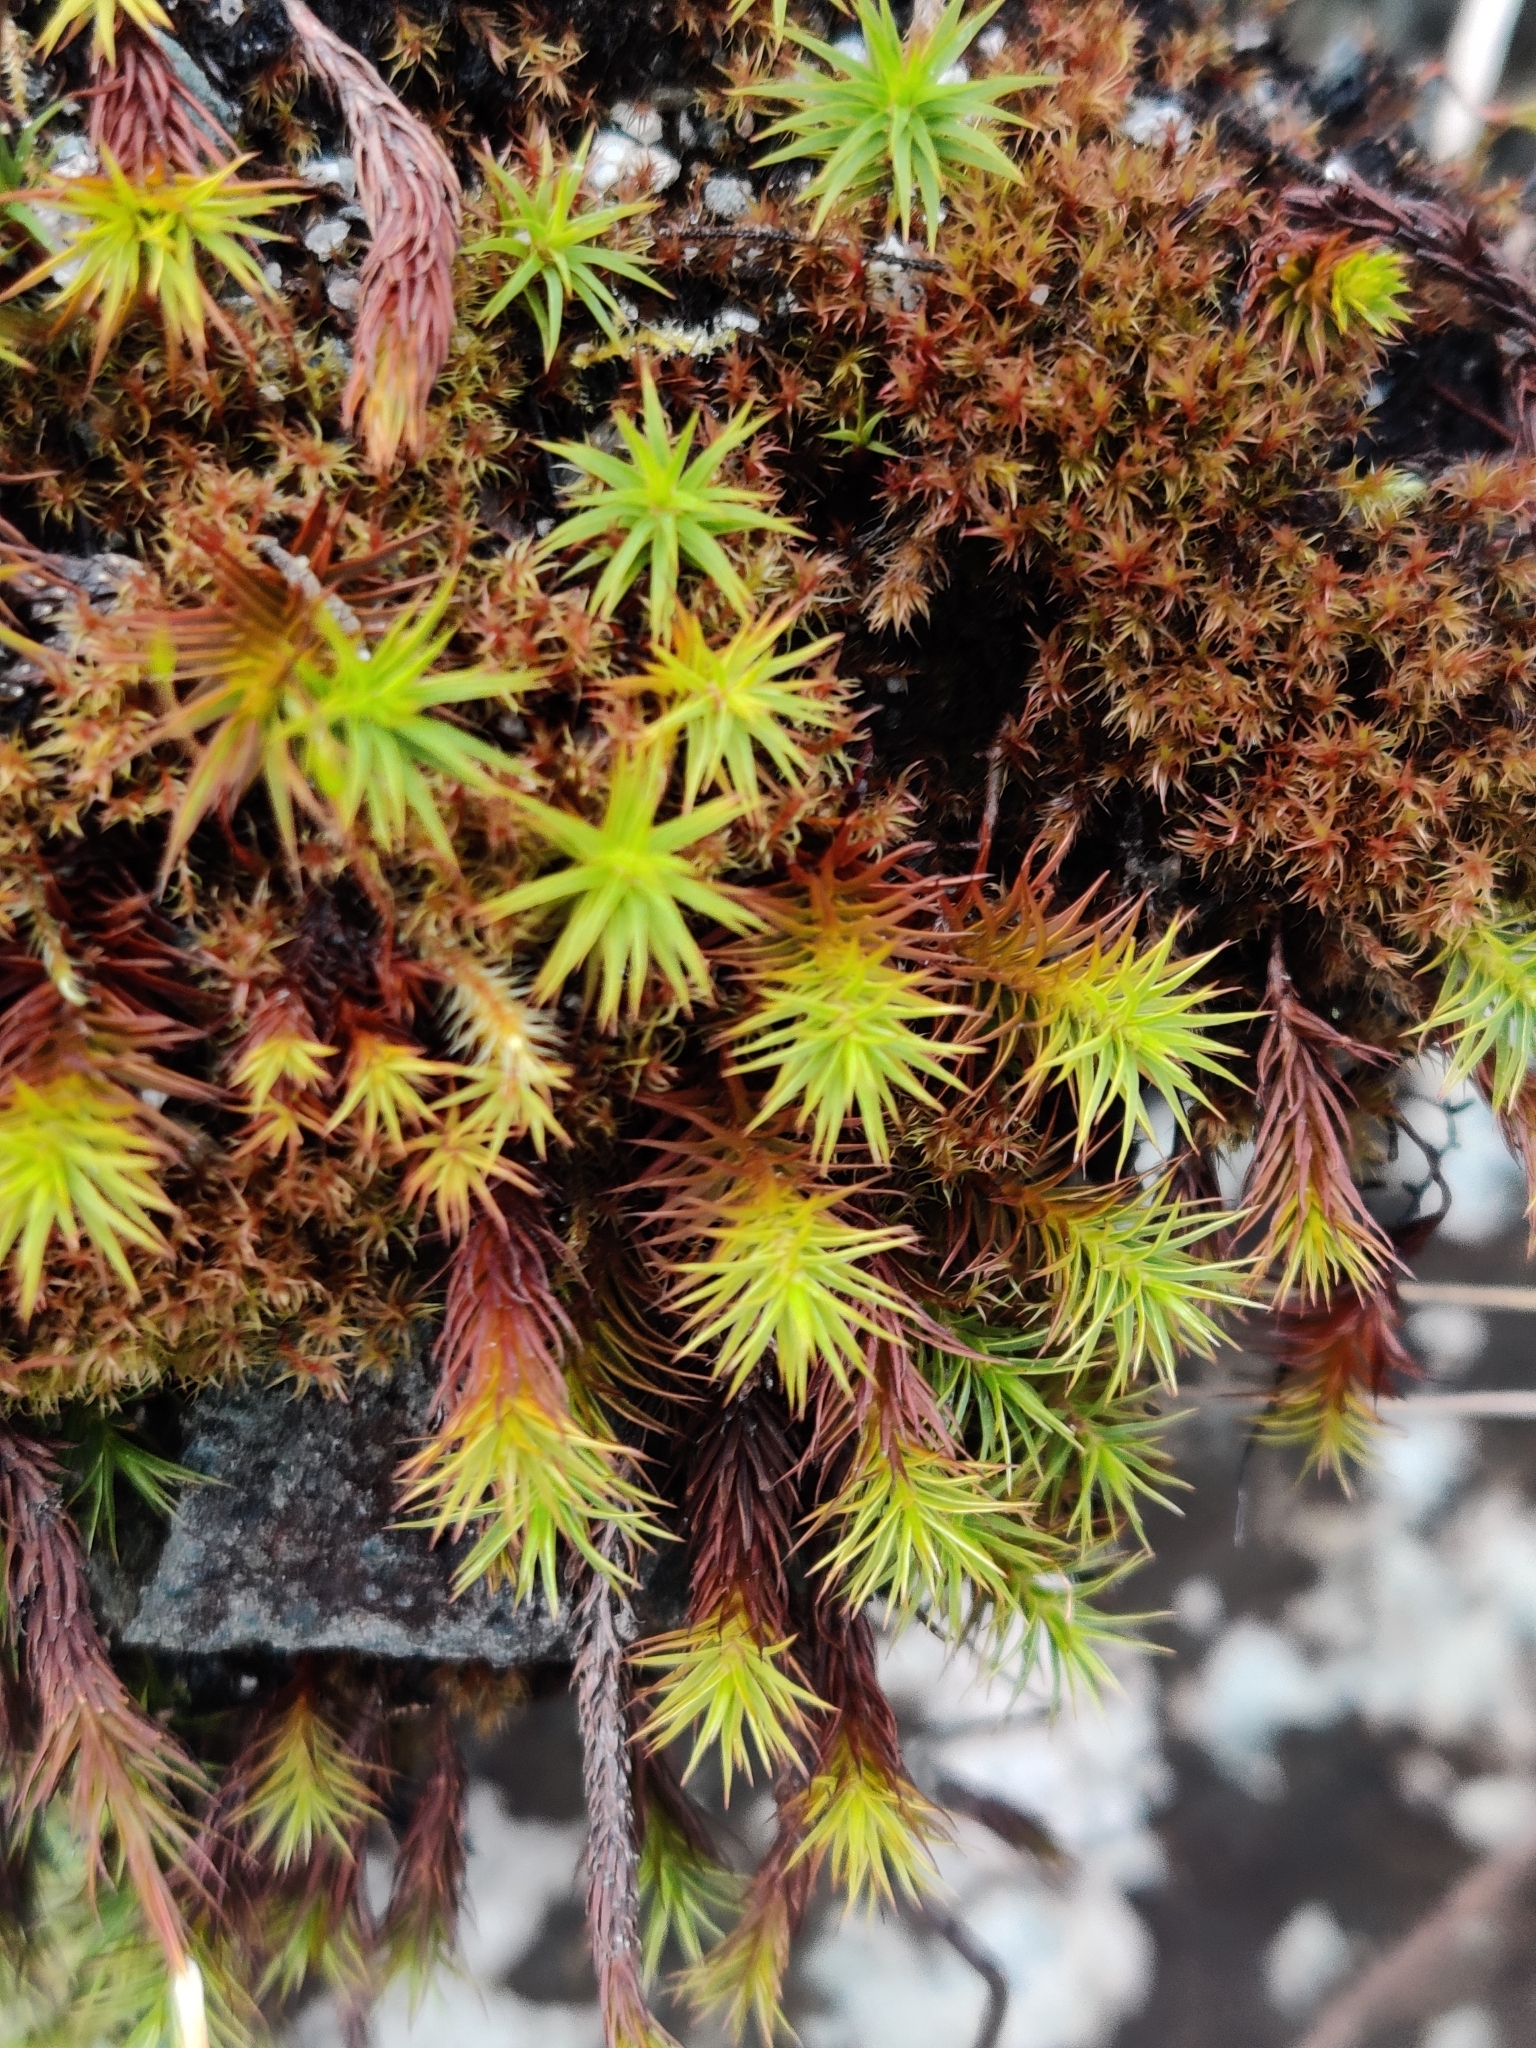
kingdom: Plantae
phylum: Bryophyta
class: Polytrichopsida
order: Polytrichales
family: Polytrichaceae
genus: Polytrichum
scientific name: Polytrichum juniperinum
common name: Juniper haircap moss
